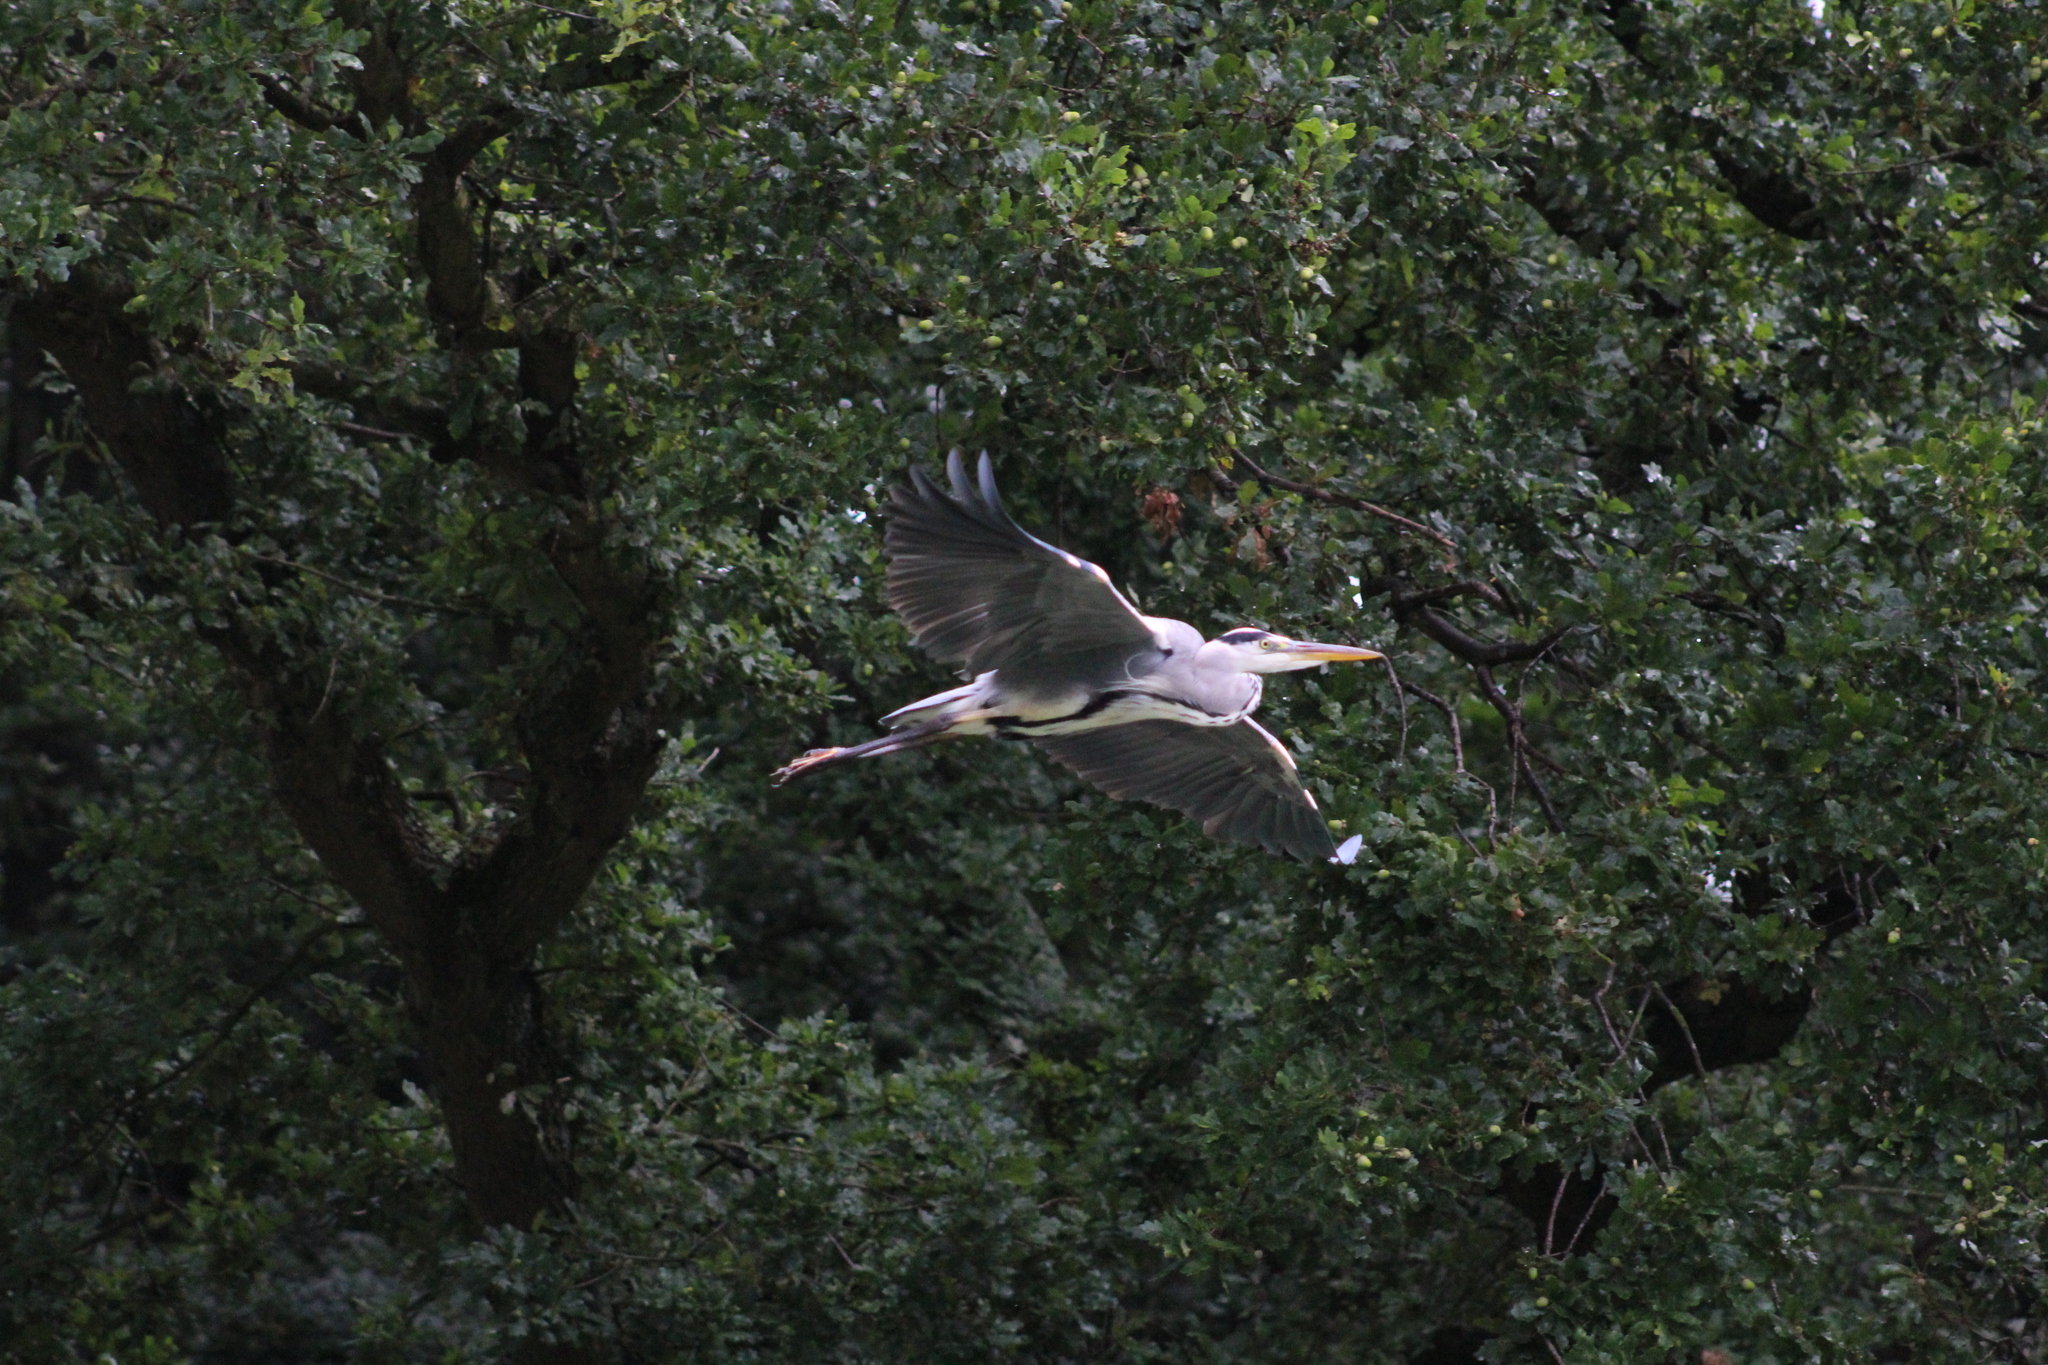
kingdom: Animalia
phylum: Chordata
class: Aves
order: Pelecaniformes
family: Ardeidae
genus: Ardea
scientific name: Ardea cinerea
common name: Grey heron
